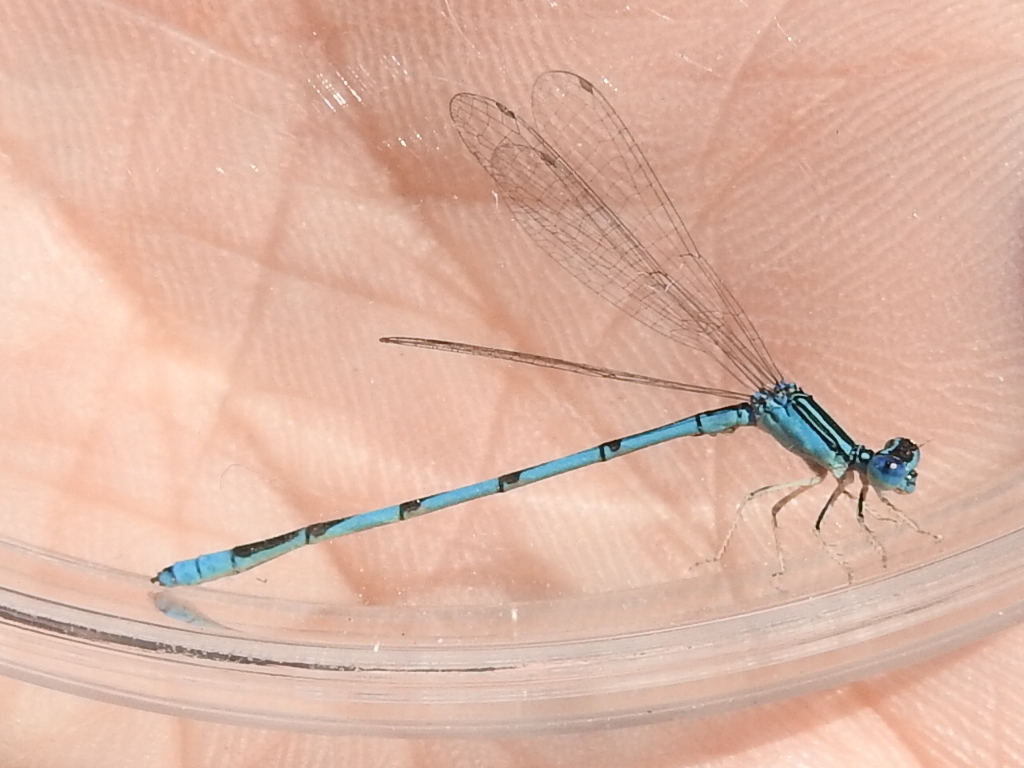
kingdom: Animalia
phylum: Arthropoda
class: Insecta
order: Odonata
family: Coenagrionidae
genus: Enallagma
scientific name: Enallagma basidens
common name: Double-striped bluet
